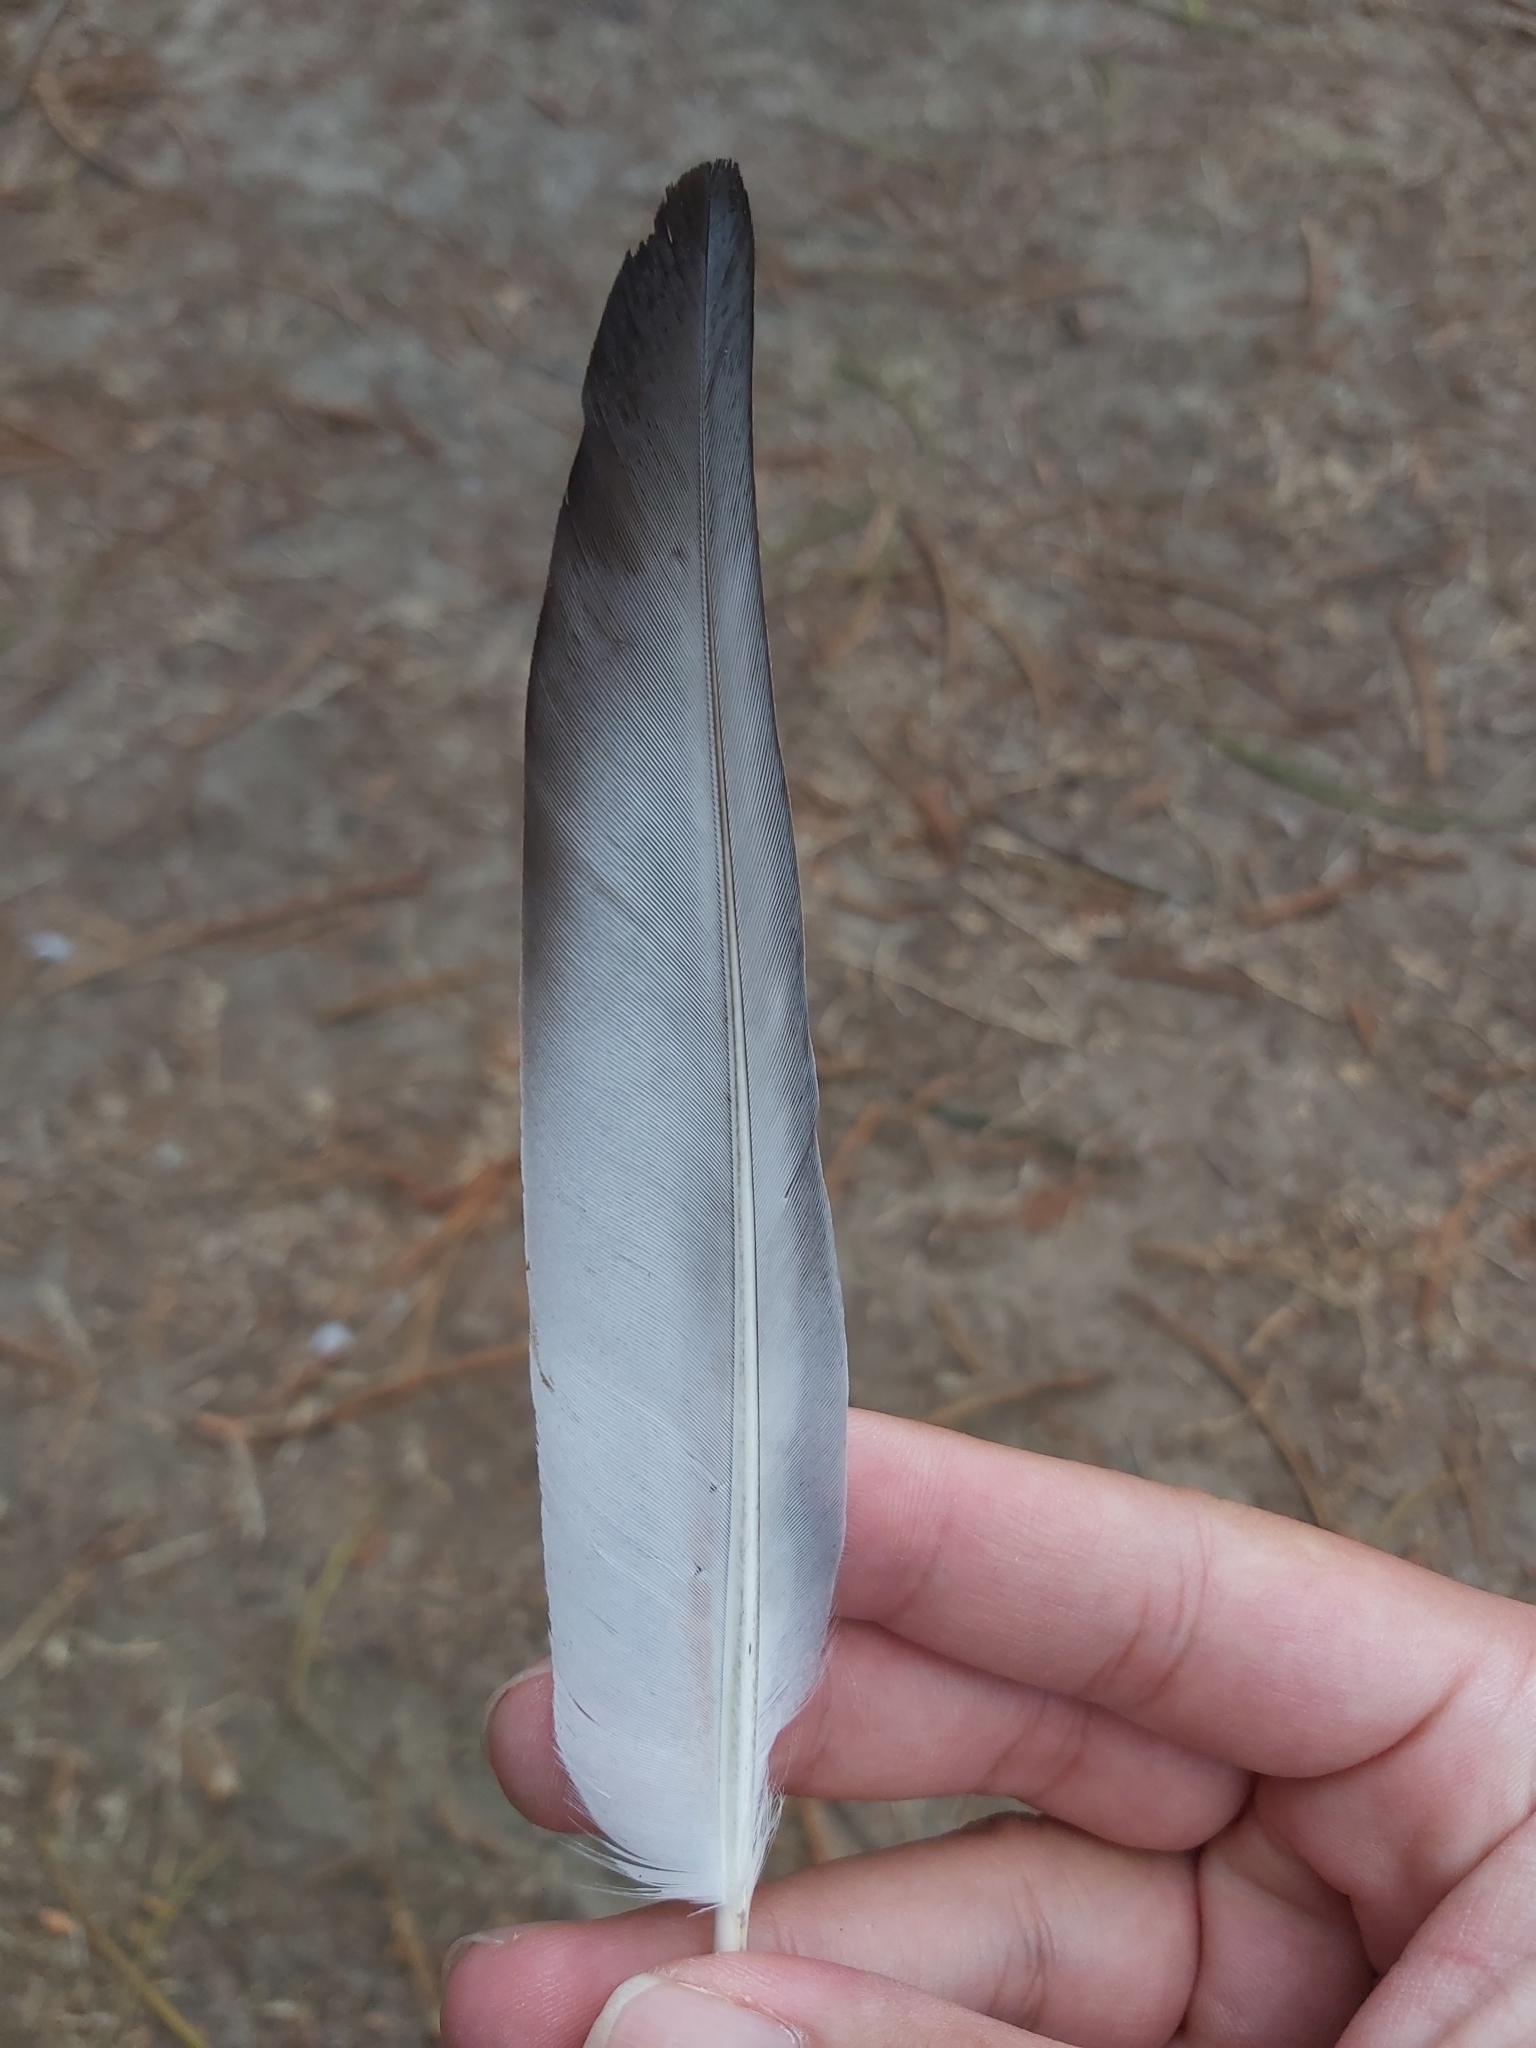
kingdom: Animalia
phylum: Chordata
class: Aves
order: Columbiformes
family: Columbidae
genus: Columba
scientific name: Columba livia
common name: Rock pigeon
